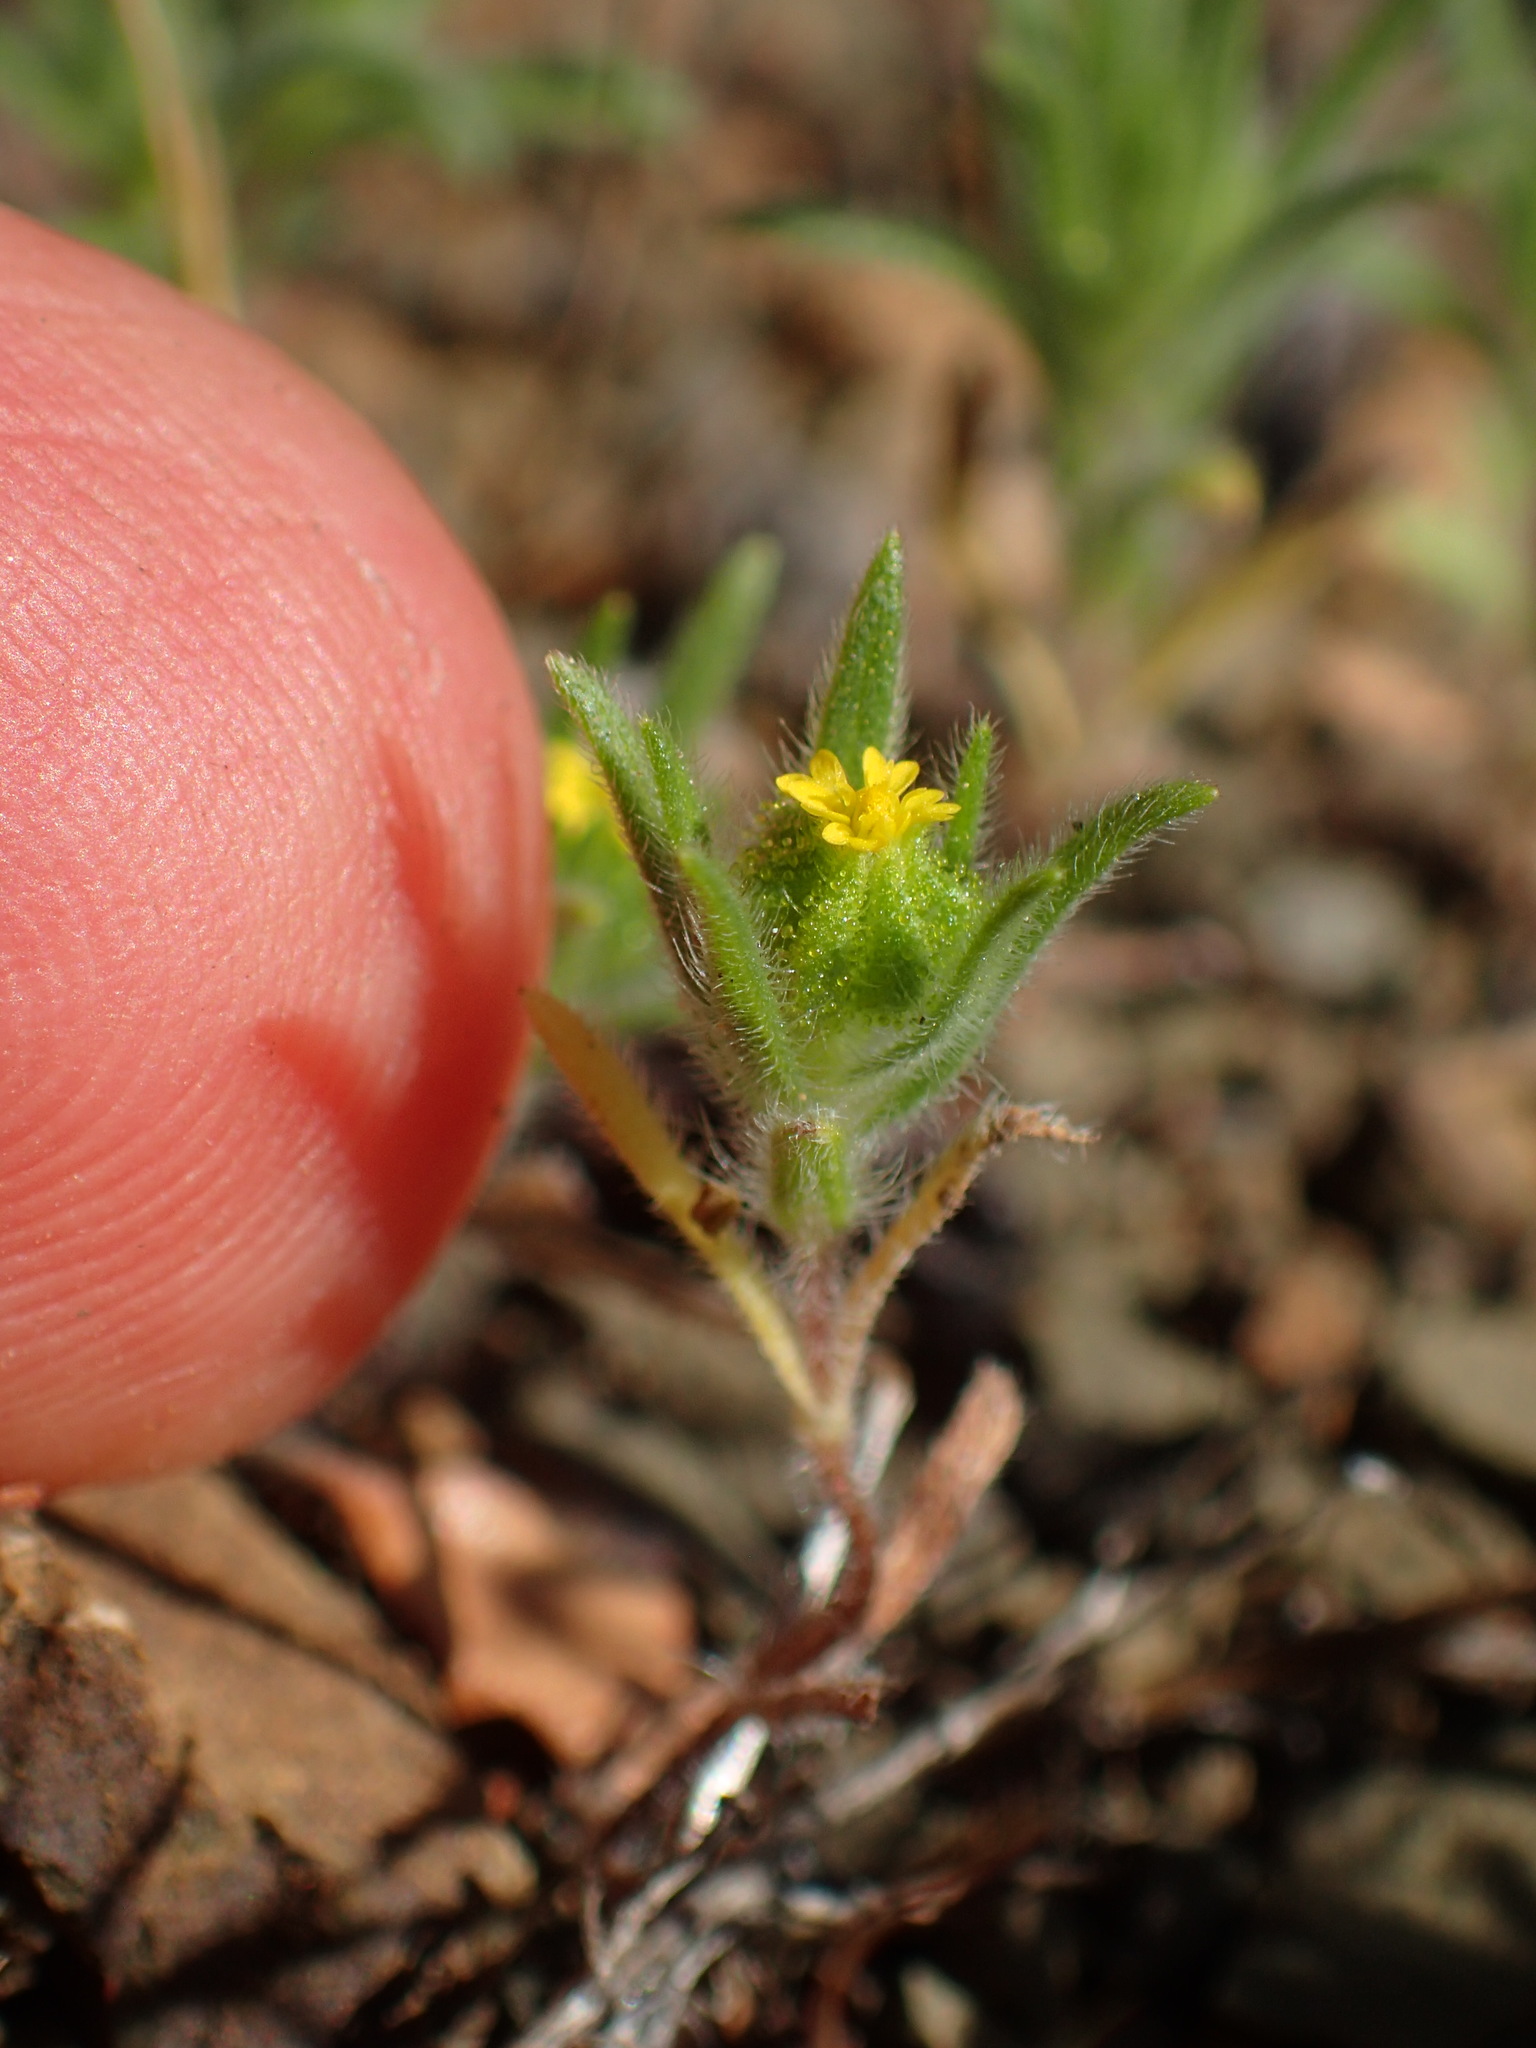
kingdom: Plantae
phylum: Tracheophyta
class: Magnoliopsida
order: Asterales
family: Asteraceae
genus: Madia
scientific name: Madia exigua
